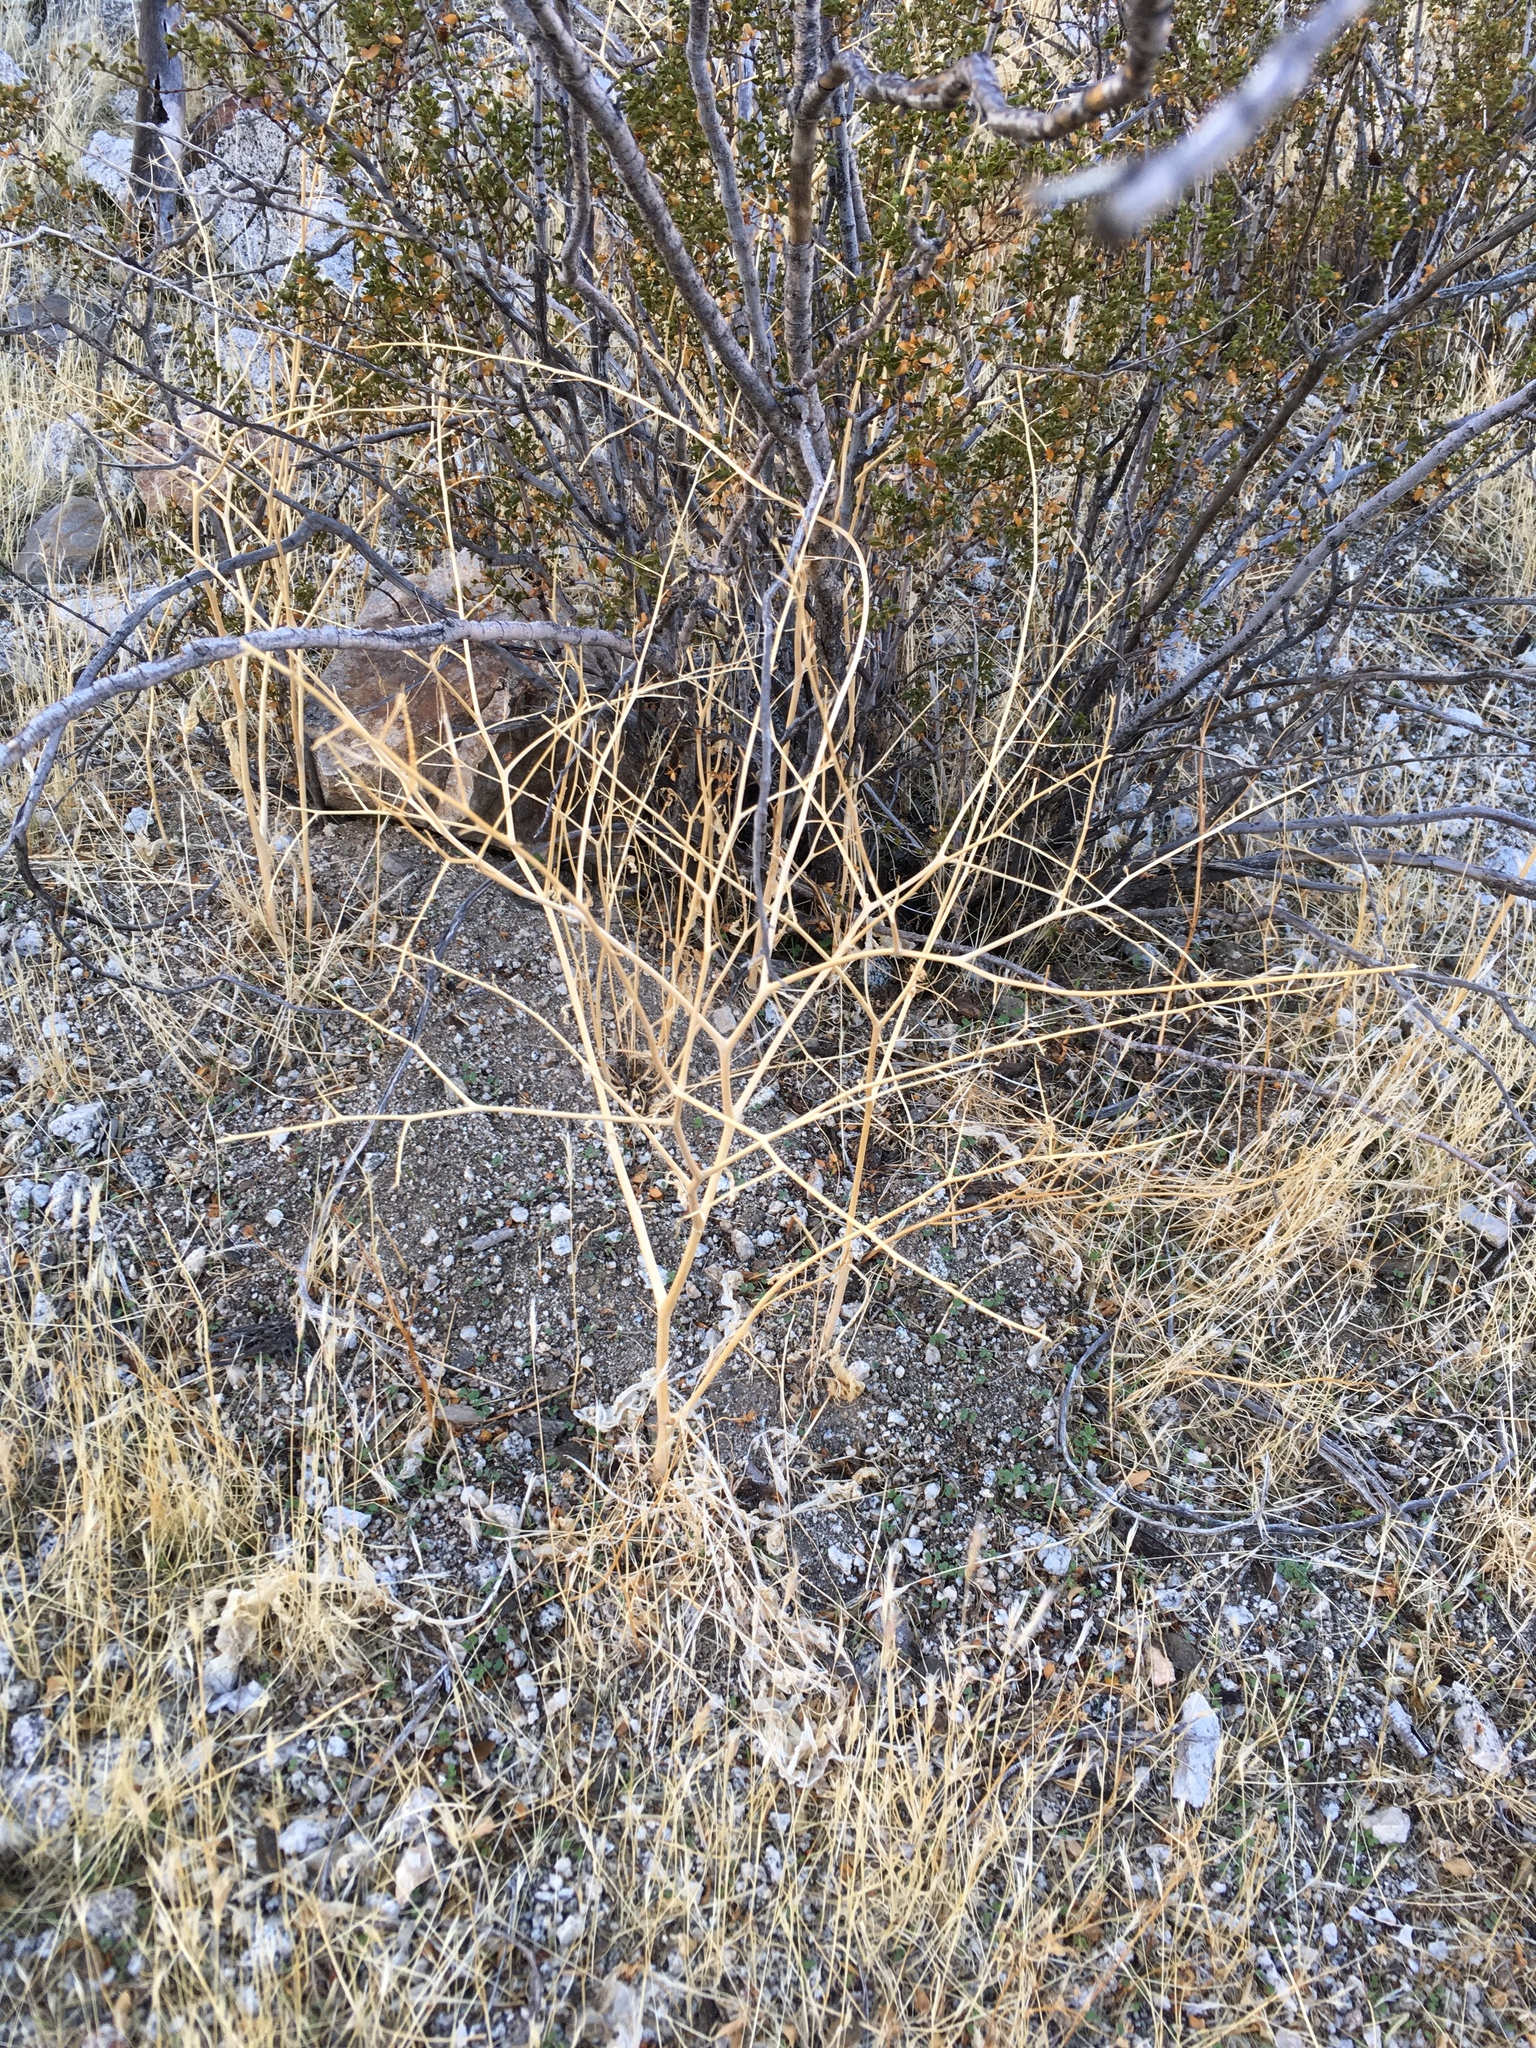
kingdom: Plantae
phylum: Tracheophyta
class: Magnoliopsida
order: Brassicales
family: Brassicaceae
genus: Brassica
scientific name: Brassica tournefortii
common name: Pale cabbage
